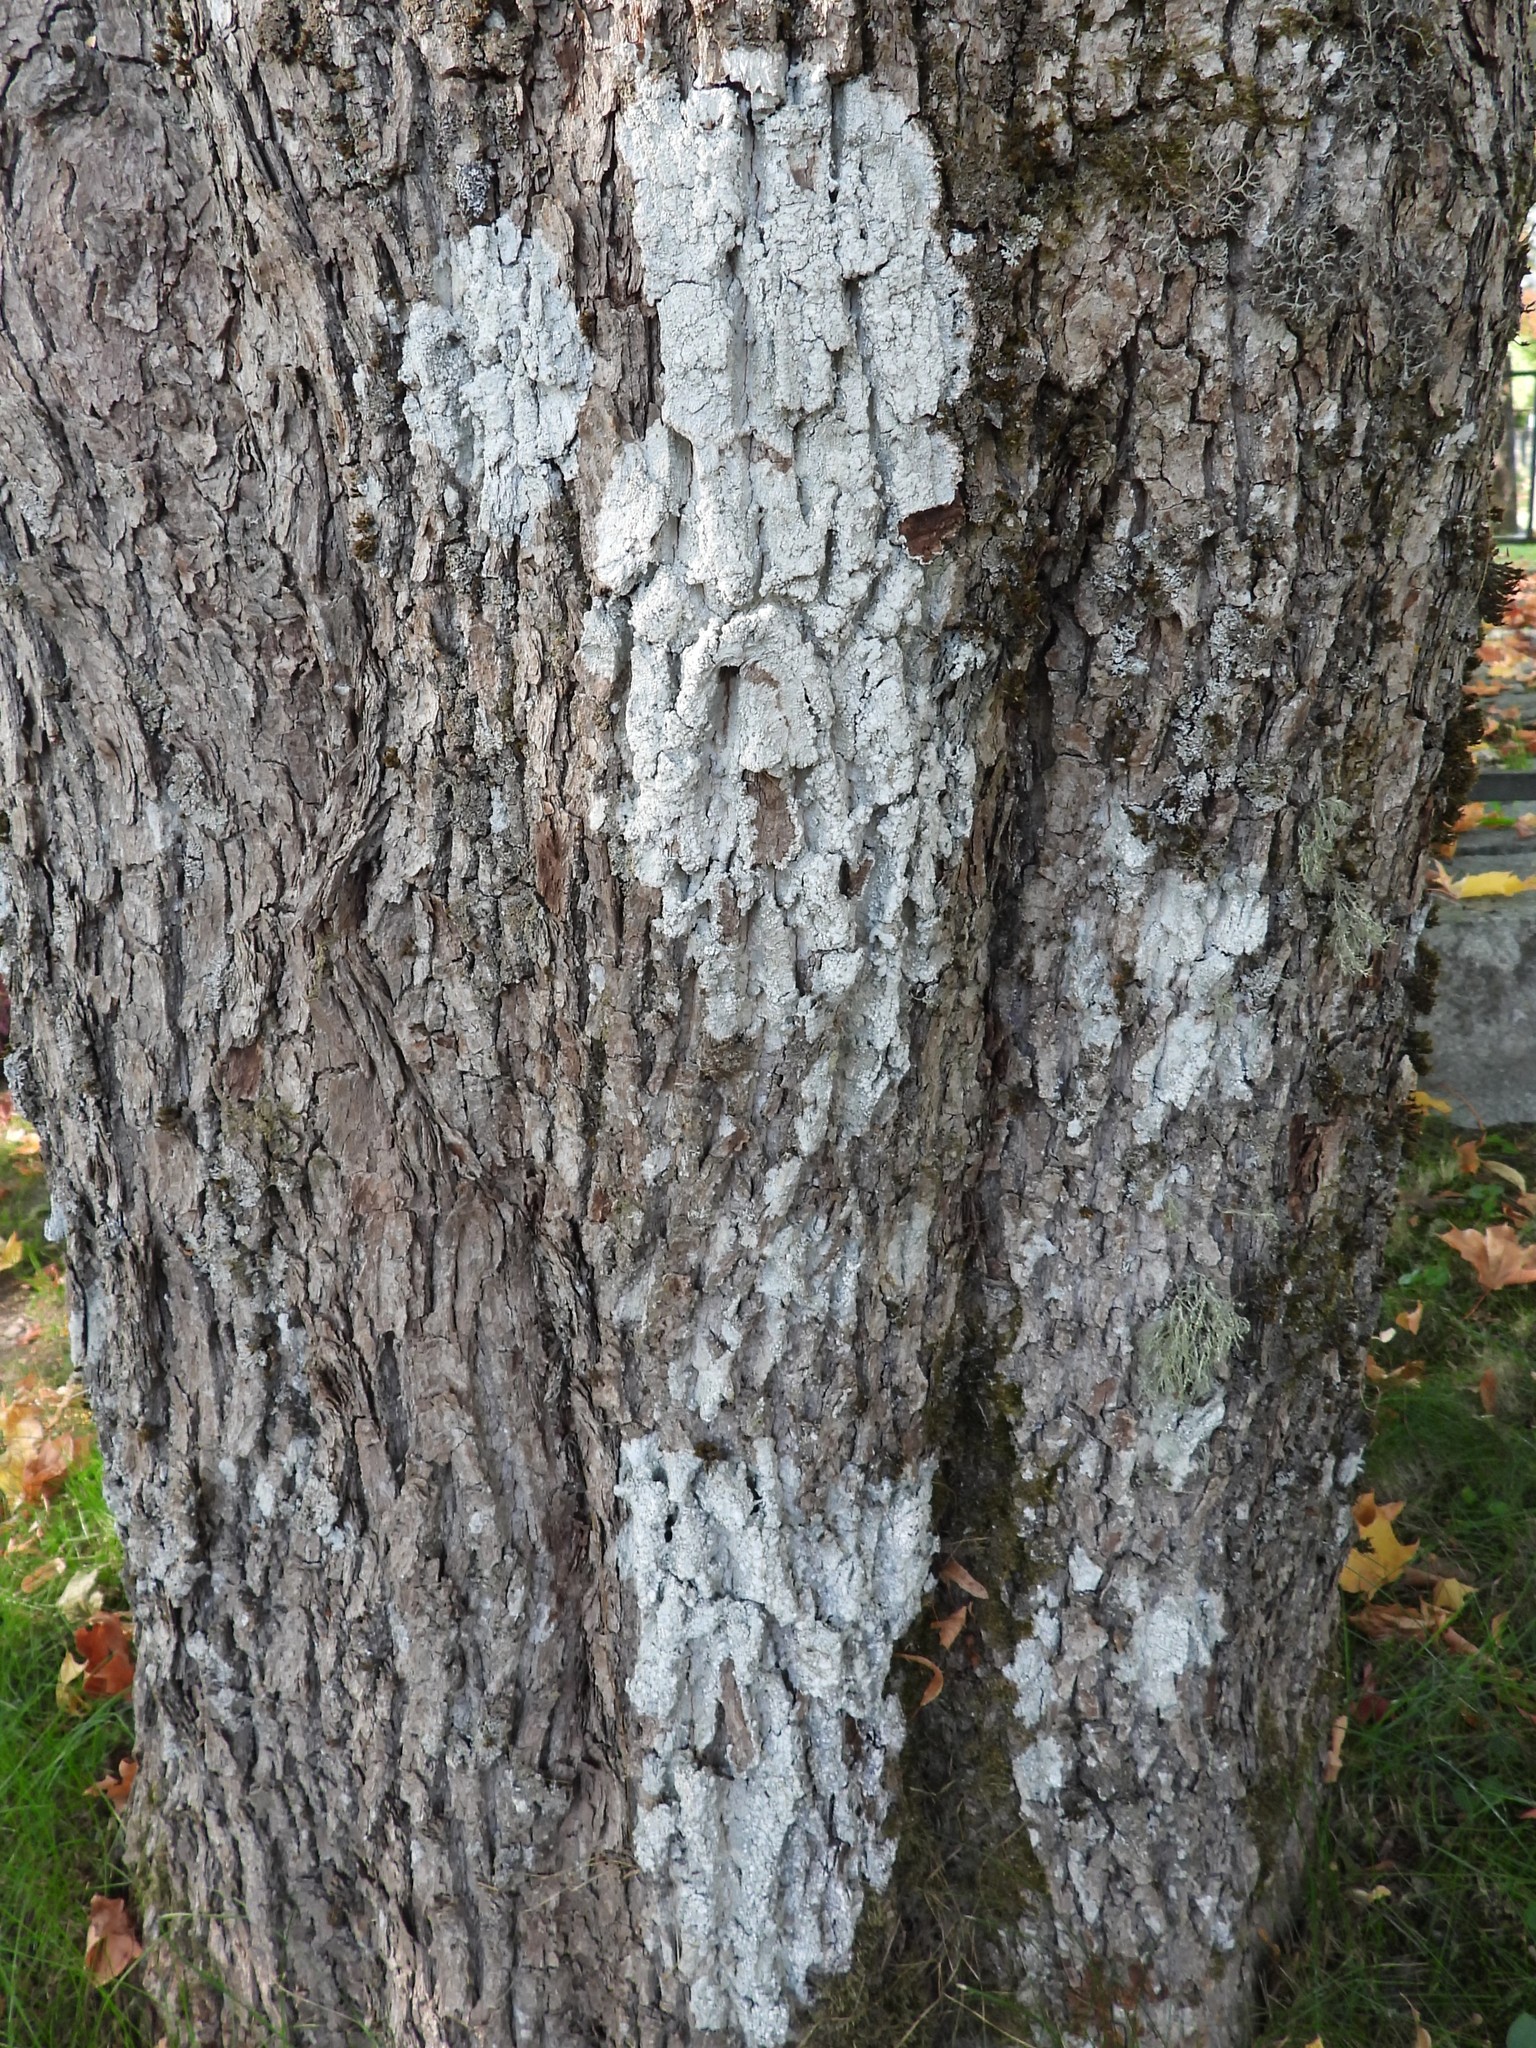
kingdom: Fungi
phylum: Ascomycota
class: Lecanoromycetes
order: Pertusariales
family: Pertusariaceae
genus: Lepra
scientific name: Lepra amara
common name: Bitter wart lichen
